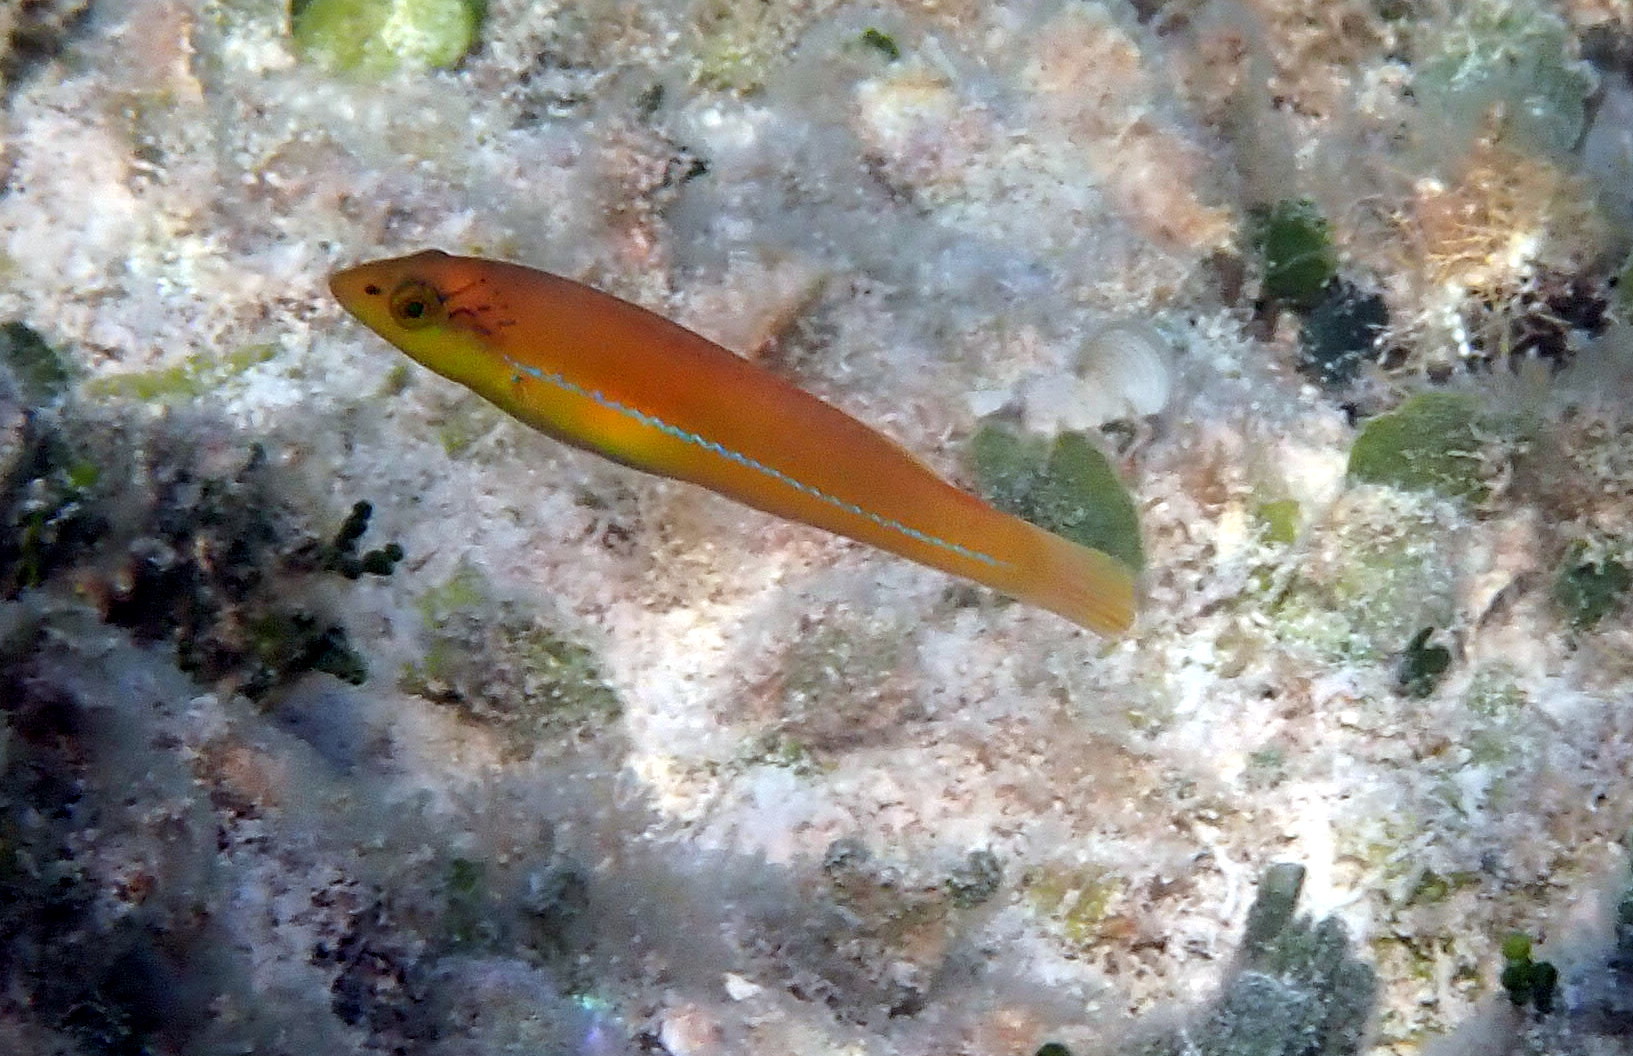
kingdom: Animalia
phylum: Chordata
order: Perciformes
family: Labridae
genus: Halichoeres
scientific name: Halichoeres garnoti
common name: Yellowhead wrasse
